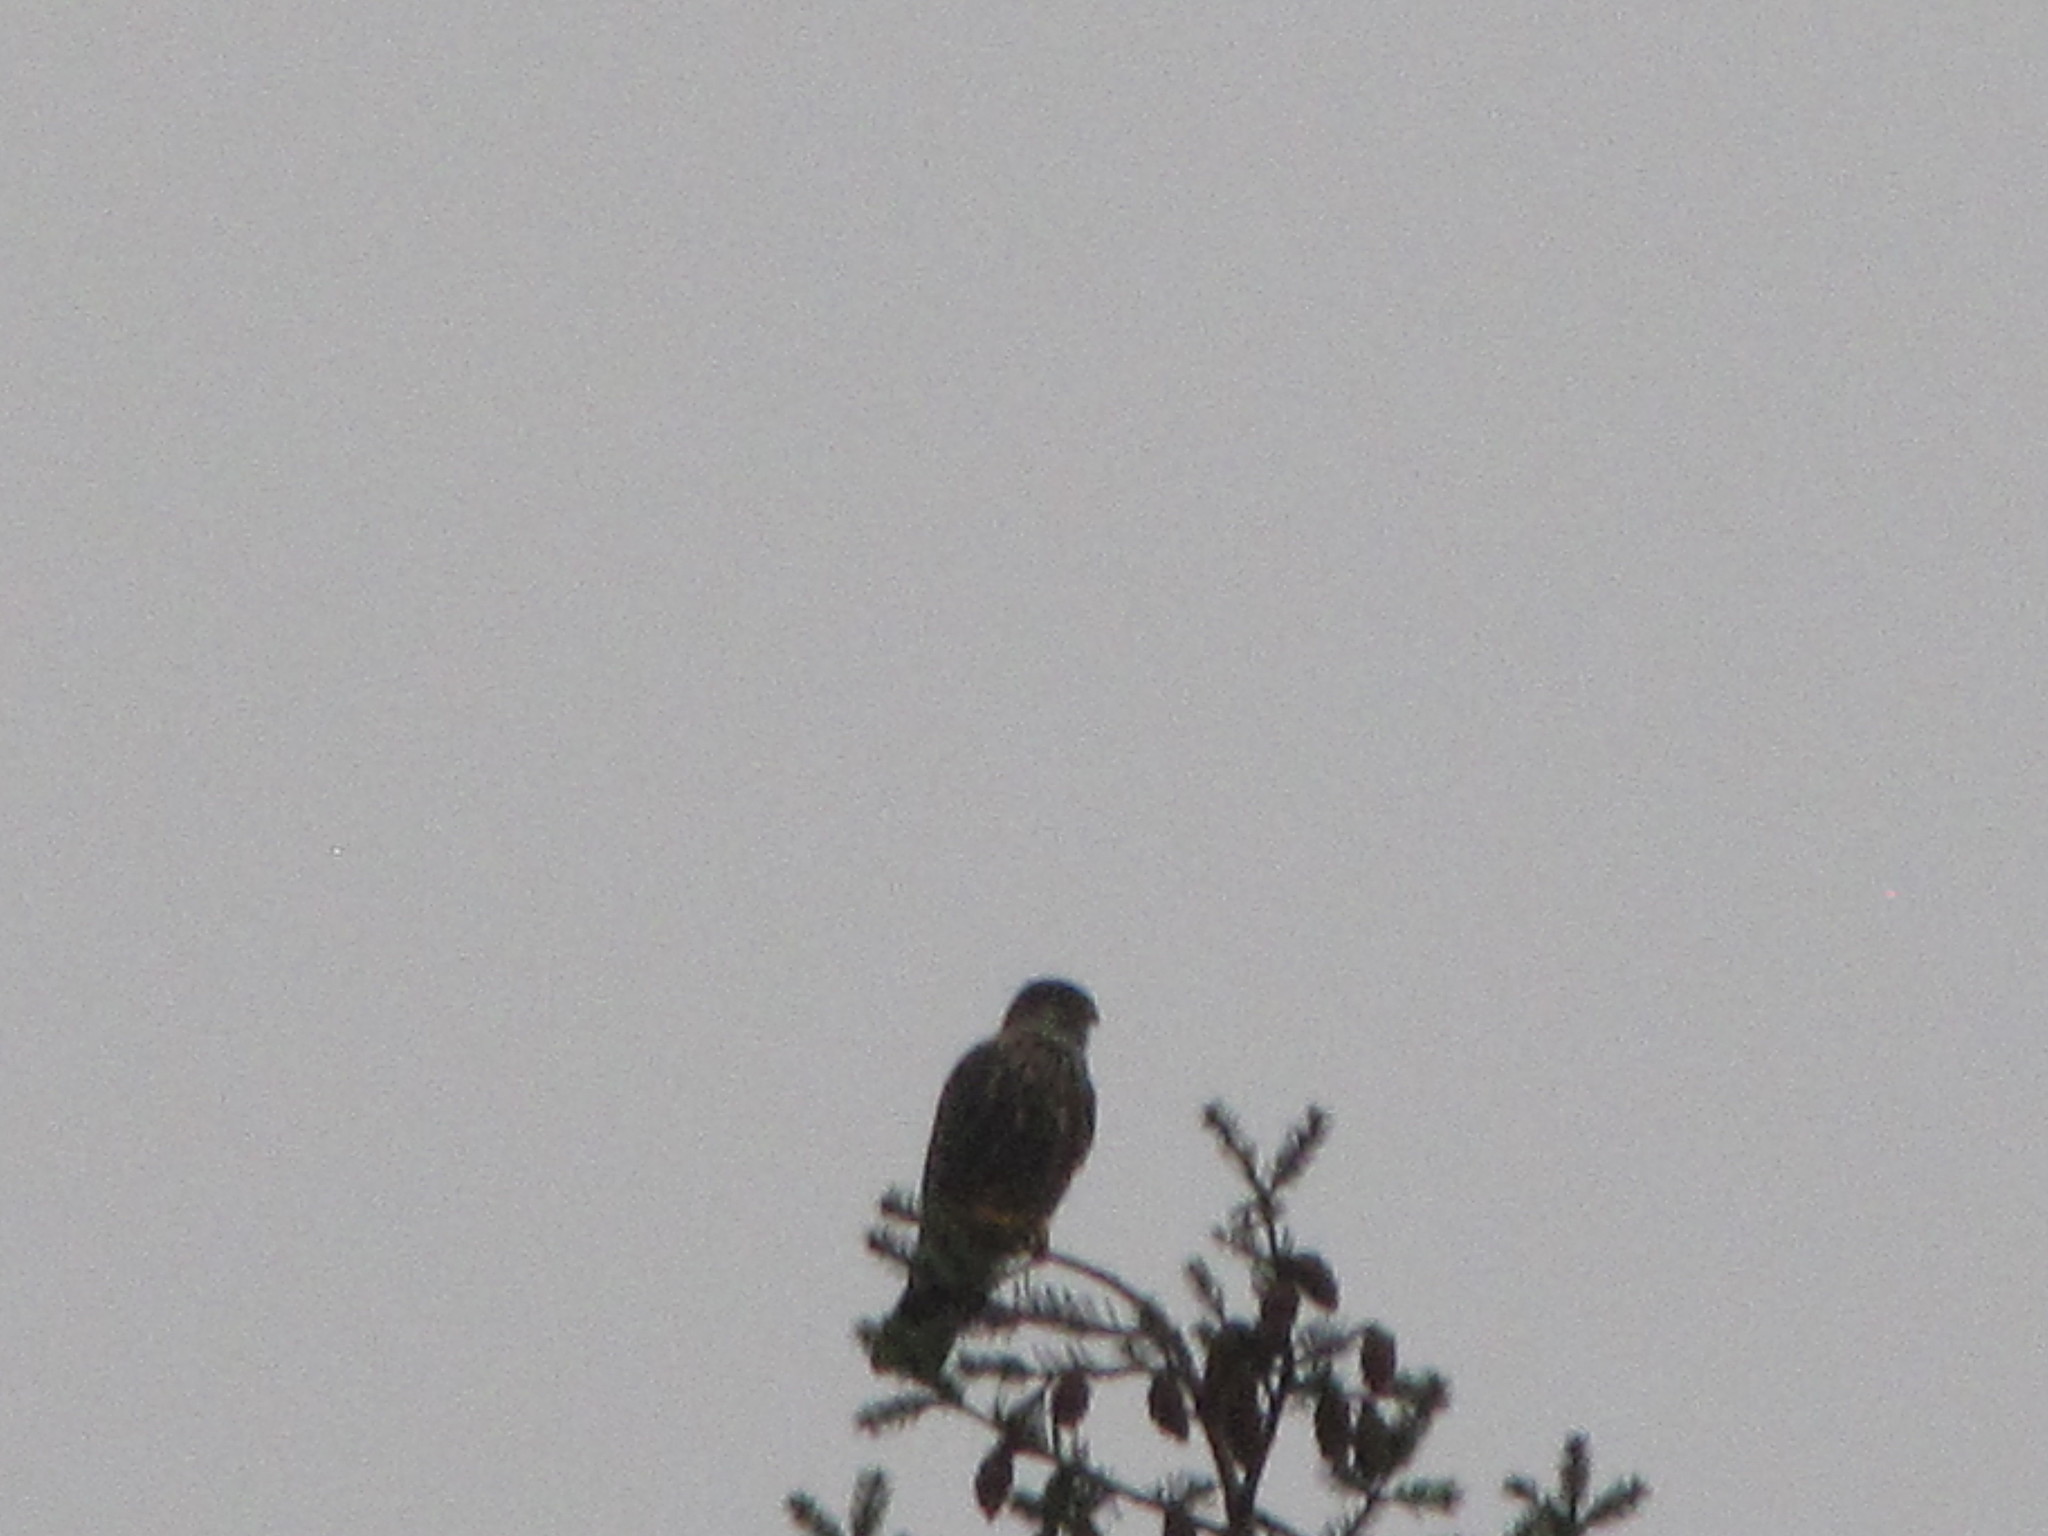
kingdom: Animalia
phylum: Chordata
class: Aves
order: Falconiformes
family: Falconidae
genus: Falco
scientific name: Falco columbarius
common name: Merlin
